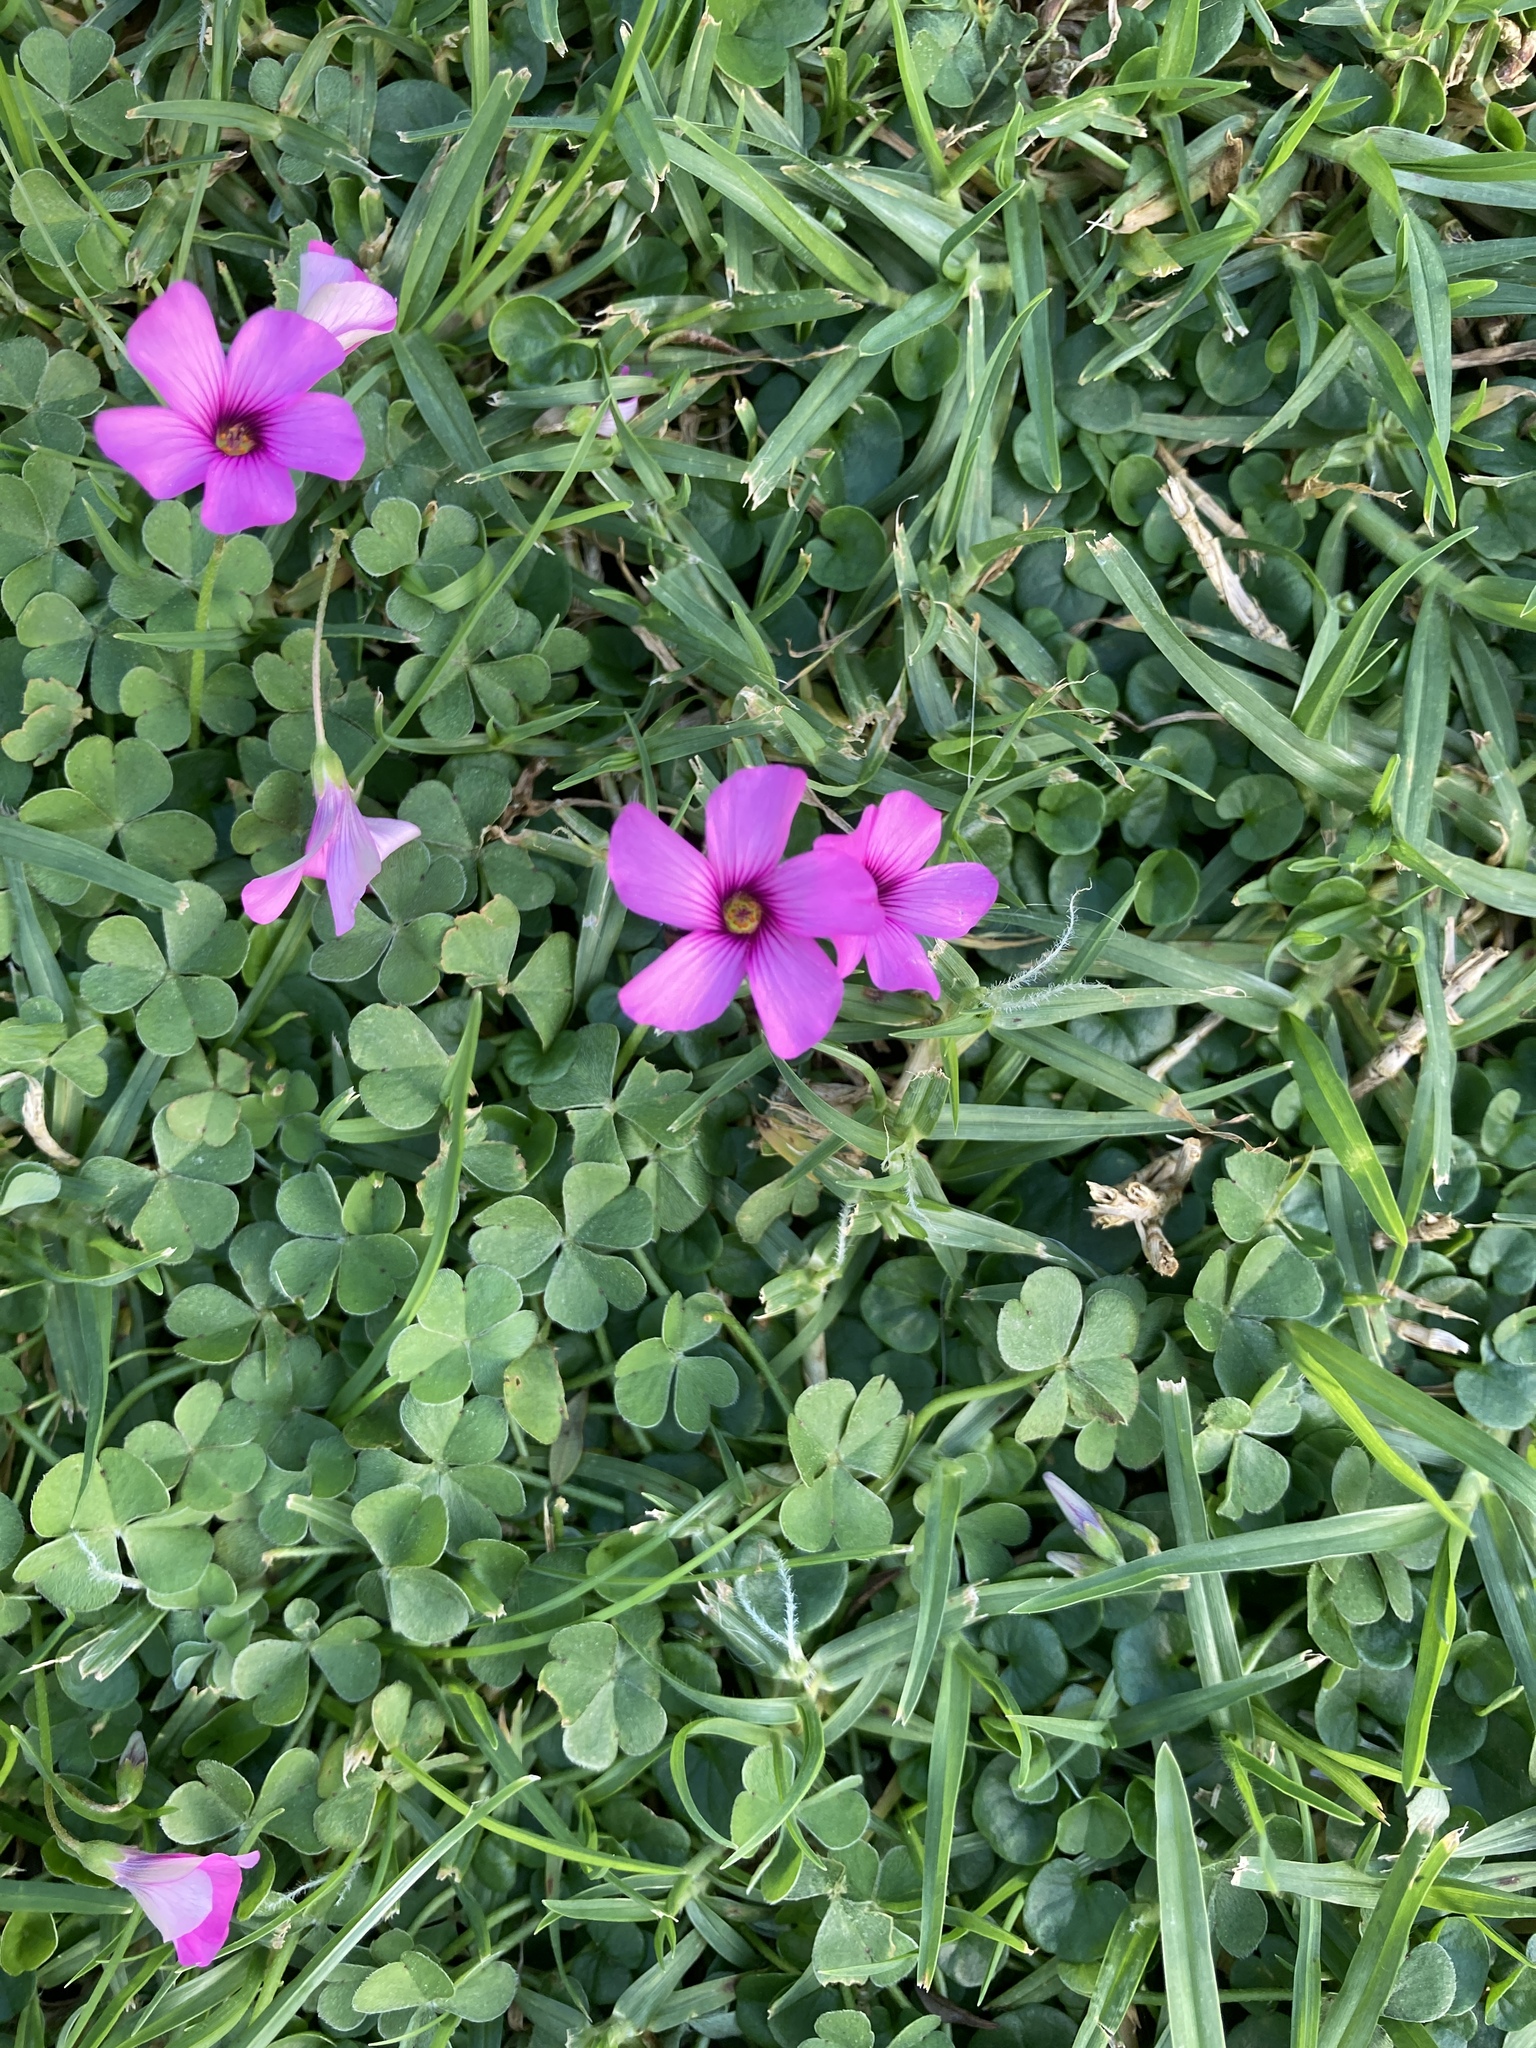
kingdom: Plantae
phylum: Tracheophyta
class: Magnoliopsida
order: Oxalidales
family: Oxalidaceae
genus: Oxalis
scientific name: Oxalis articulata
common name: Pink-sorrel
